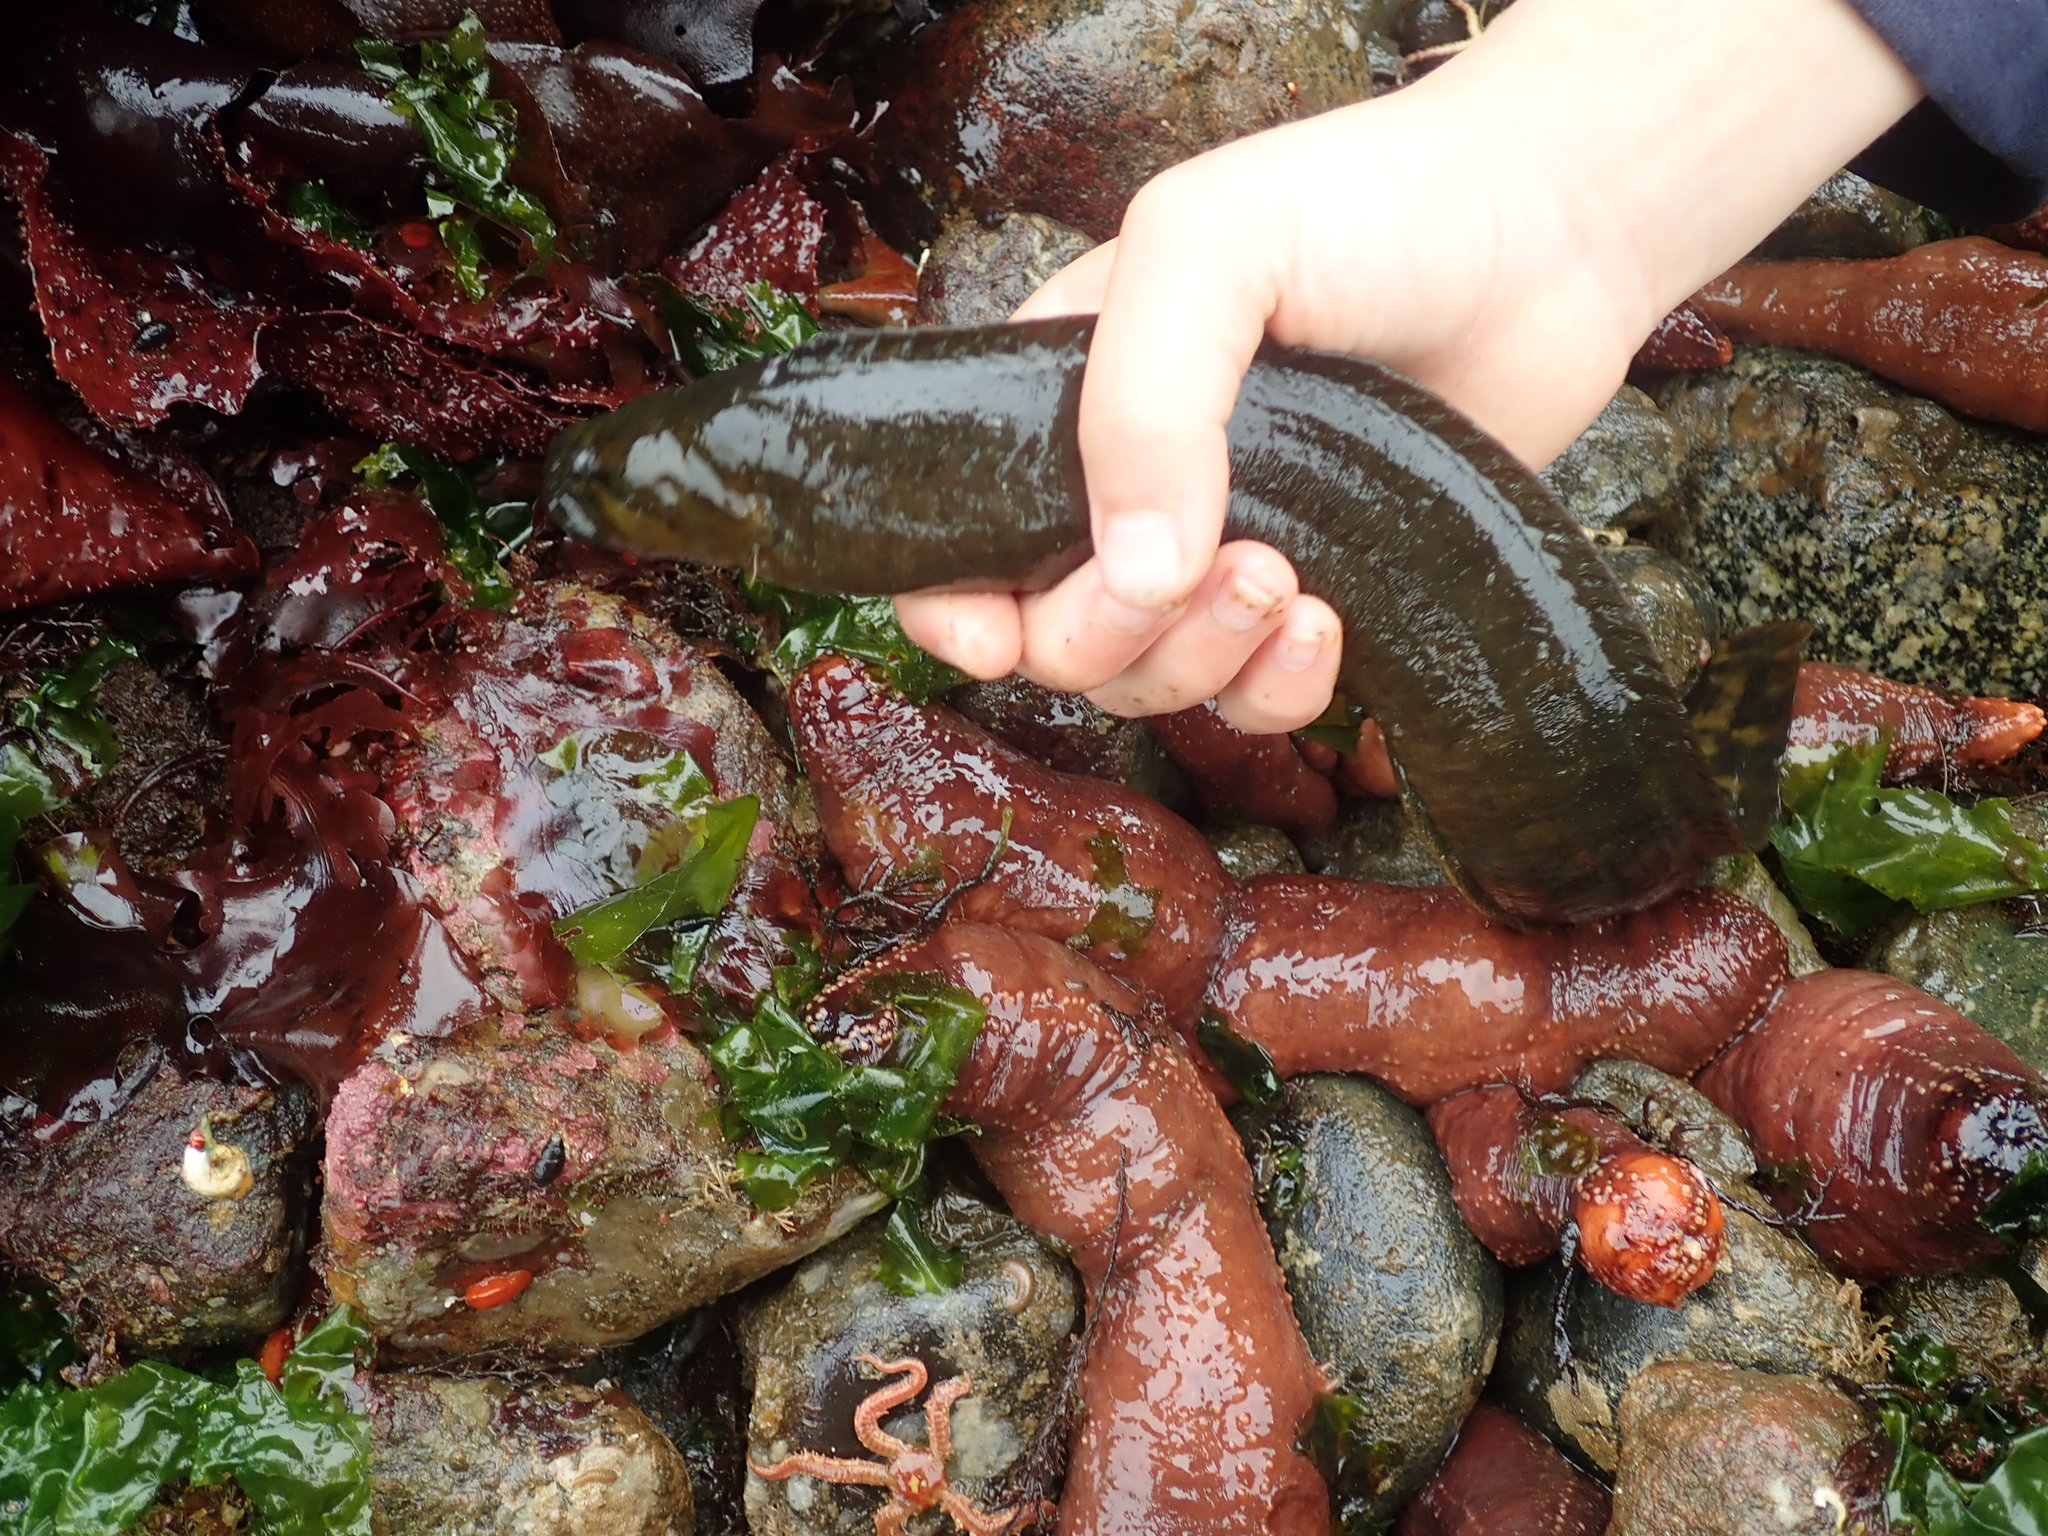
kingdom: Animalia
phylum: Chordata
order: Perciformes
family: Stichaeidae
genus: Xiphister
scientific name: Xiphister mucosus
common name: Rock prickleback
